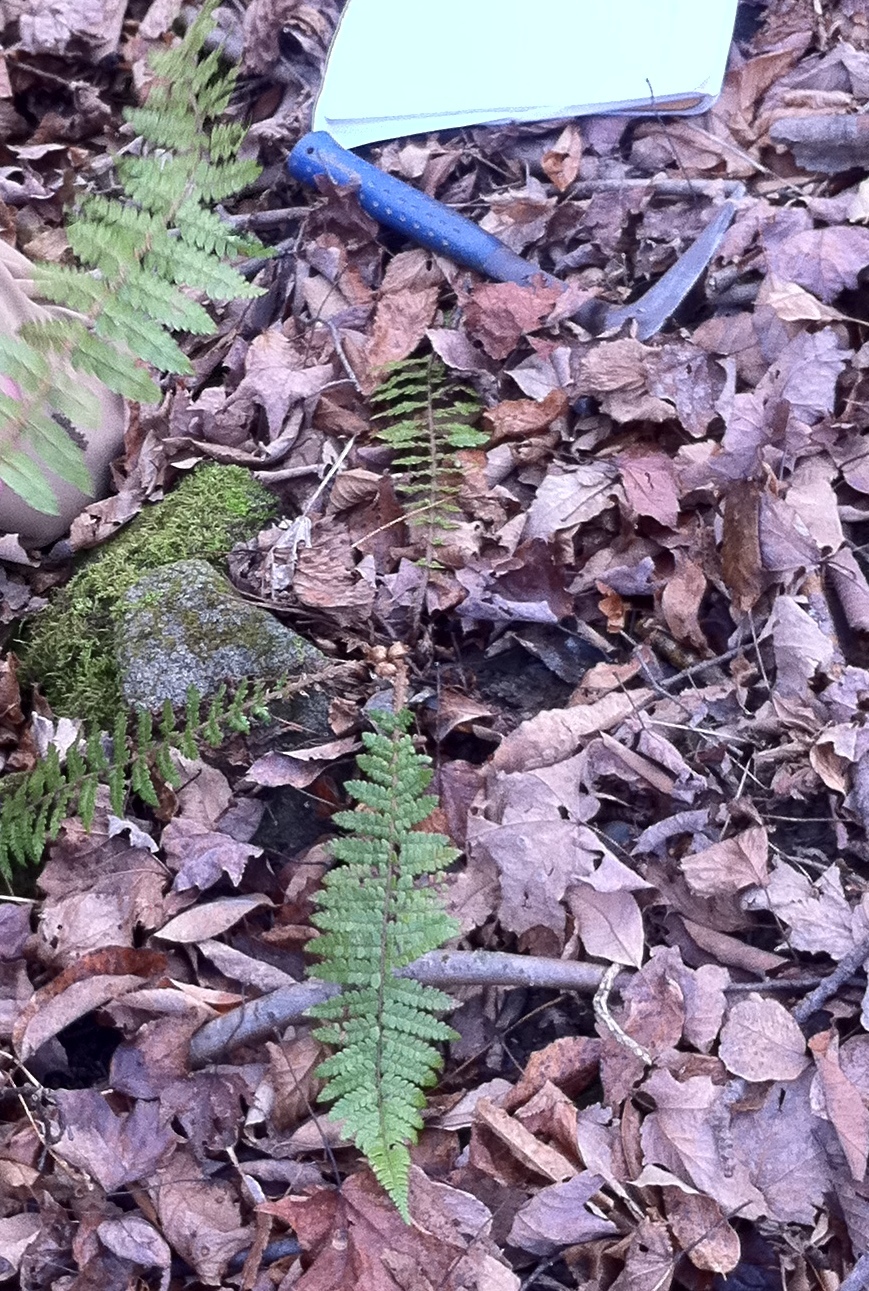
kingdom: Plantae
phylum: Tracheophyta
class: Polypodiopsida
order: Polypodiales
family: Dryopteridaceae
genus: Polystichum
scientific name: Polystichum braunii
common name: Braun's holly fern
